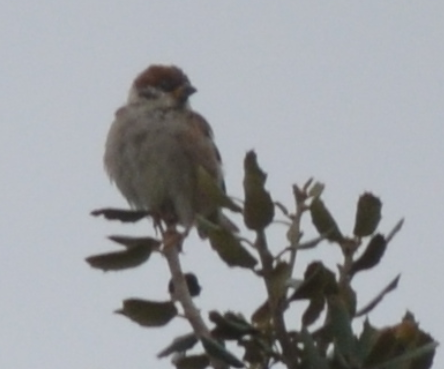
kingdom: Animalia
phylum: Chordata
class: Aves
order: Passeriformes
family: Passeridae
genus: Passer
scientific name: Passer montanus
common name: Eurasian tree sparrow
